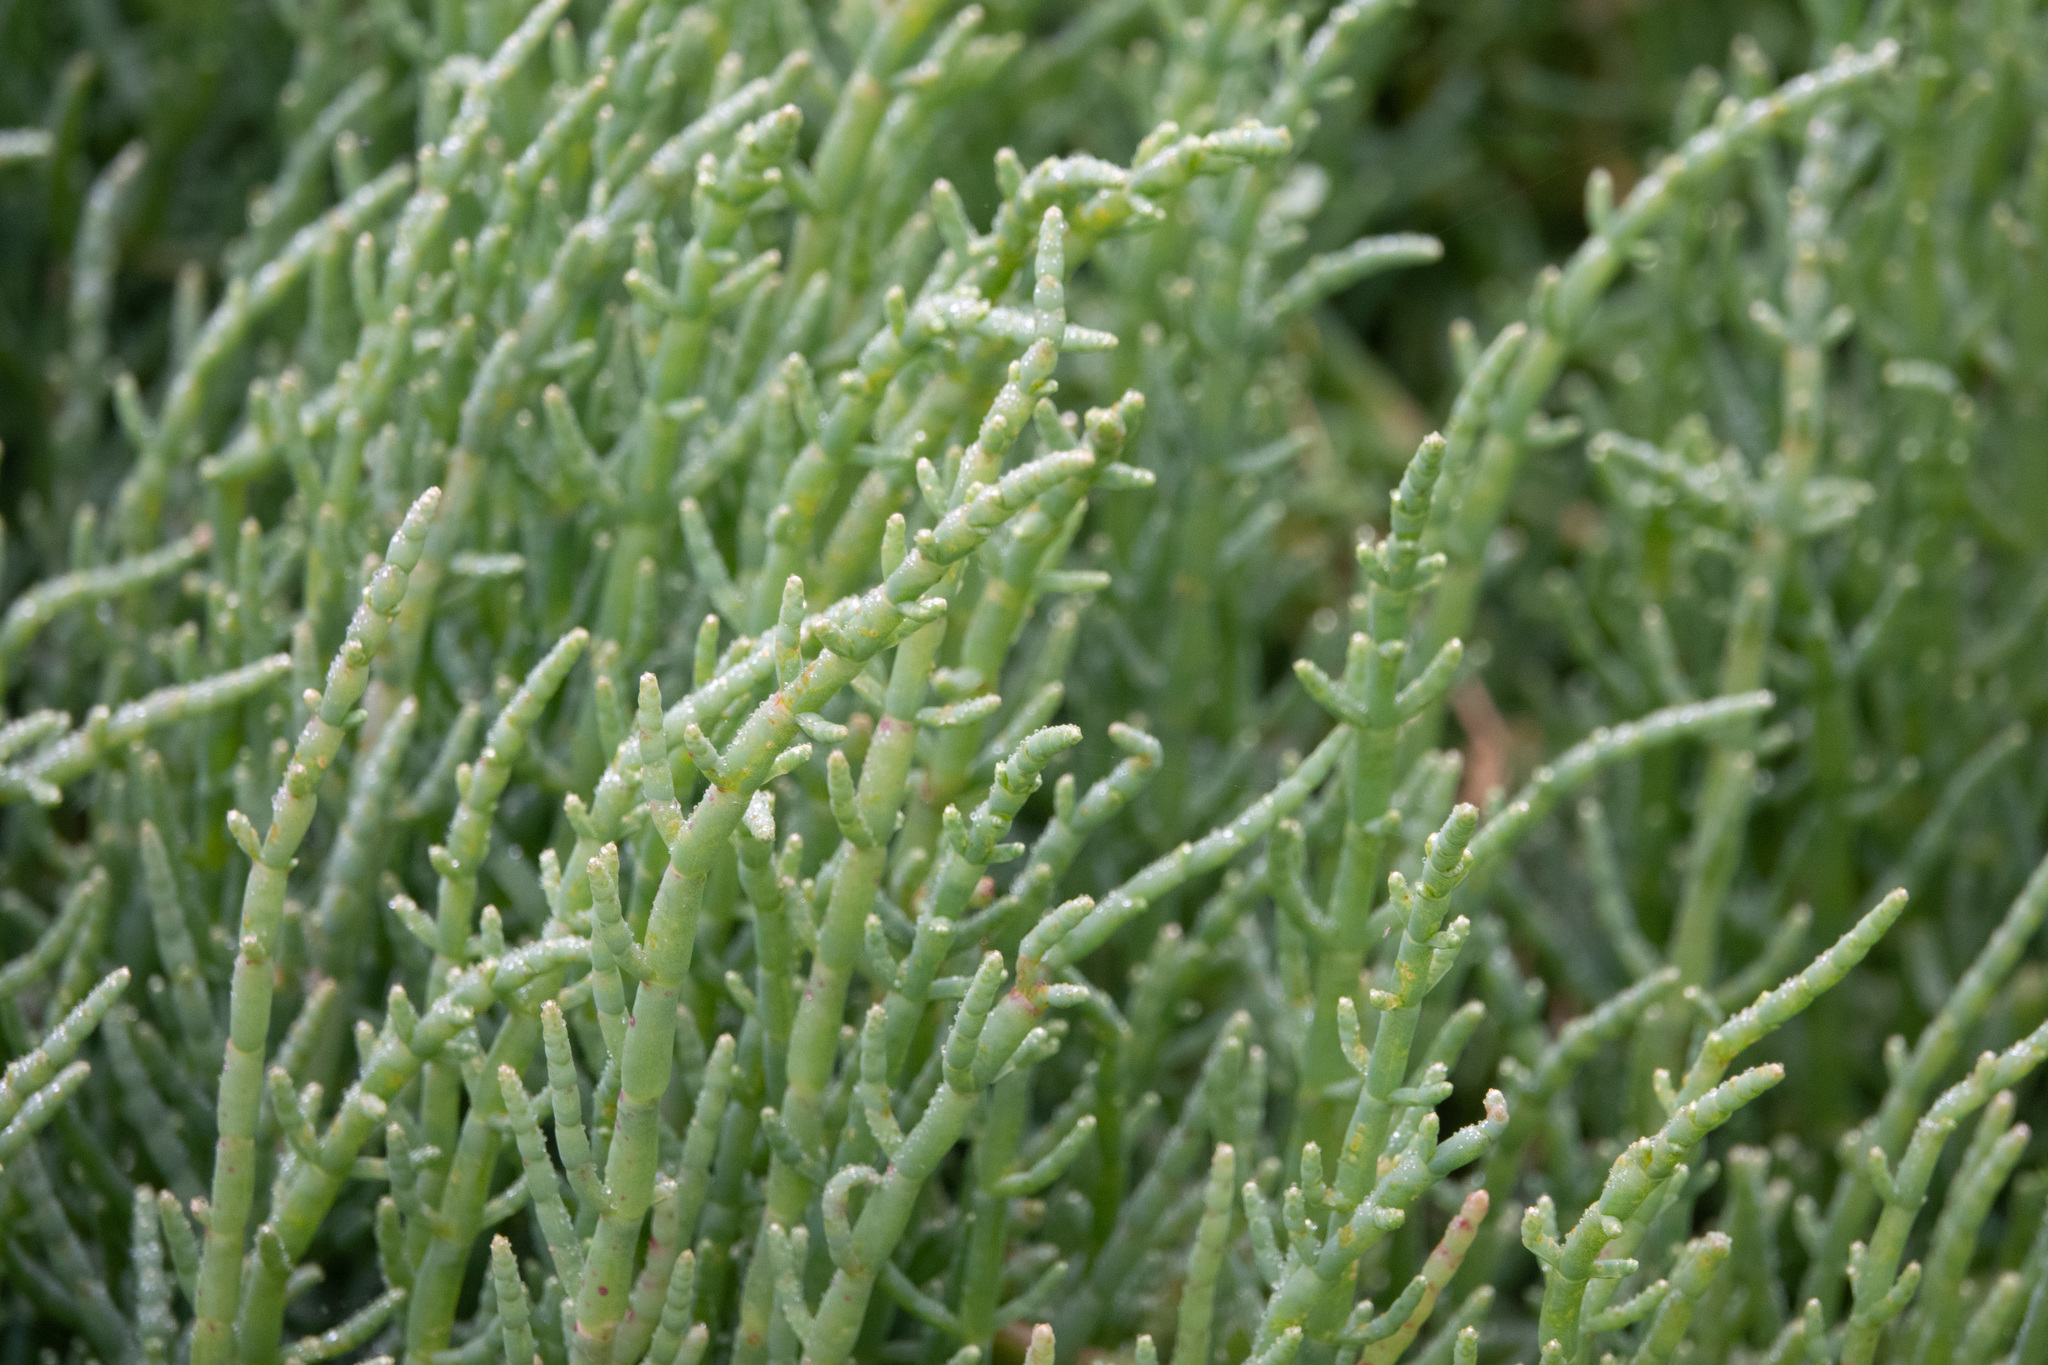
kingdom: Plantae
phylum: Tracheophyta
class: Magnoliopsida
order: Caryophyllales
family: Amaranthaceae
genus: Salicornia
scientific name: Salicornia pacifica
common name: Pacific glasswort
